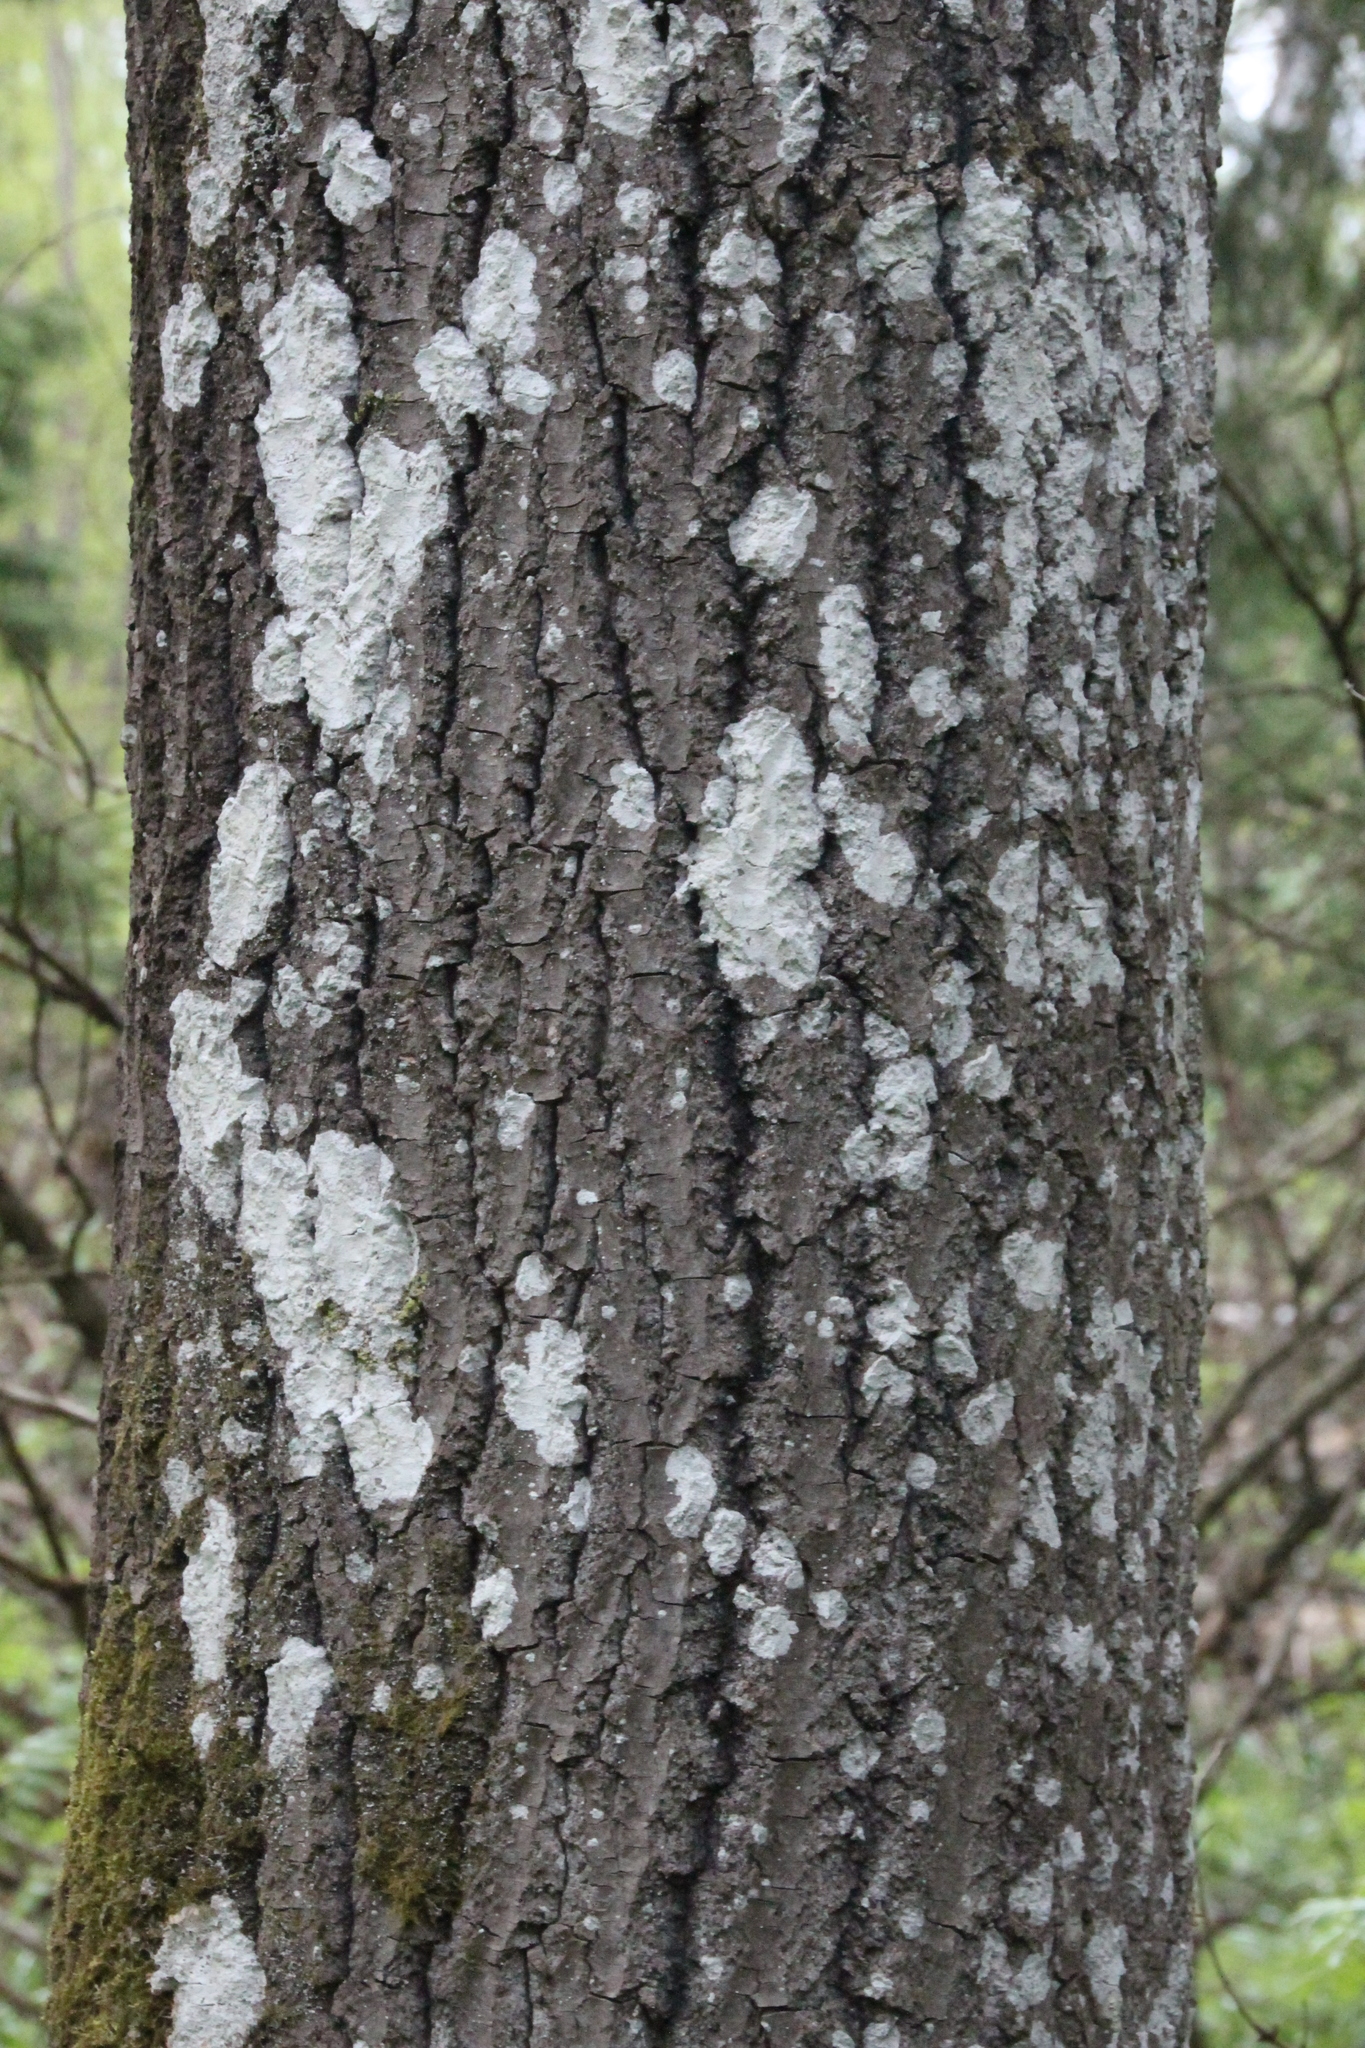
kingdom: Plantae
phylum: Tracheophyta
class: Magnoliopsida
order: Malpighiales
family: Salicaceae
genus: Populus
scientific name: Populus tremula
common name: European aspen
